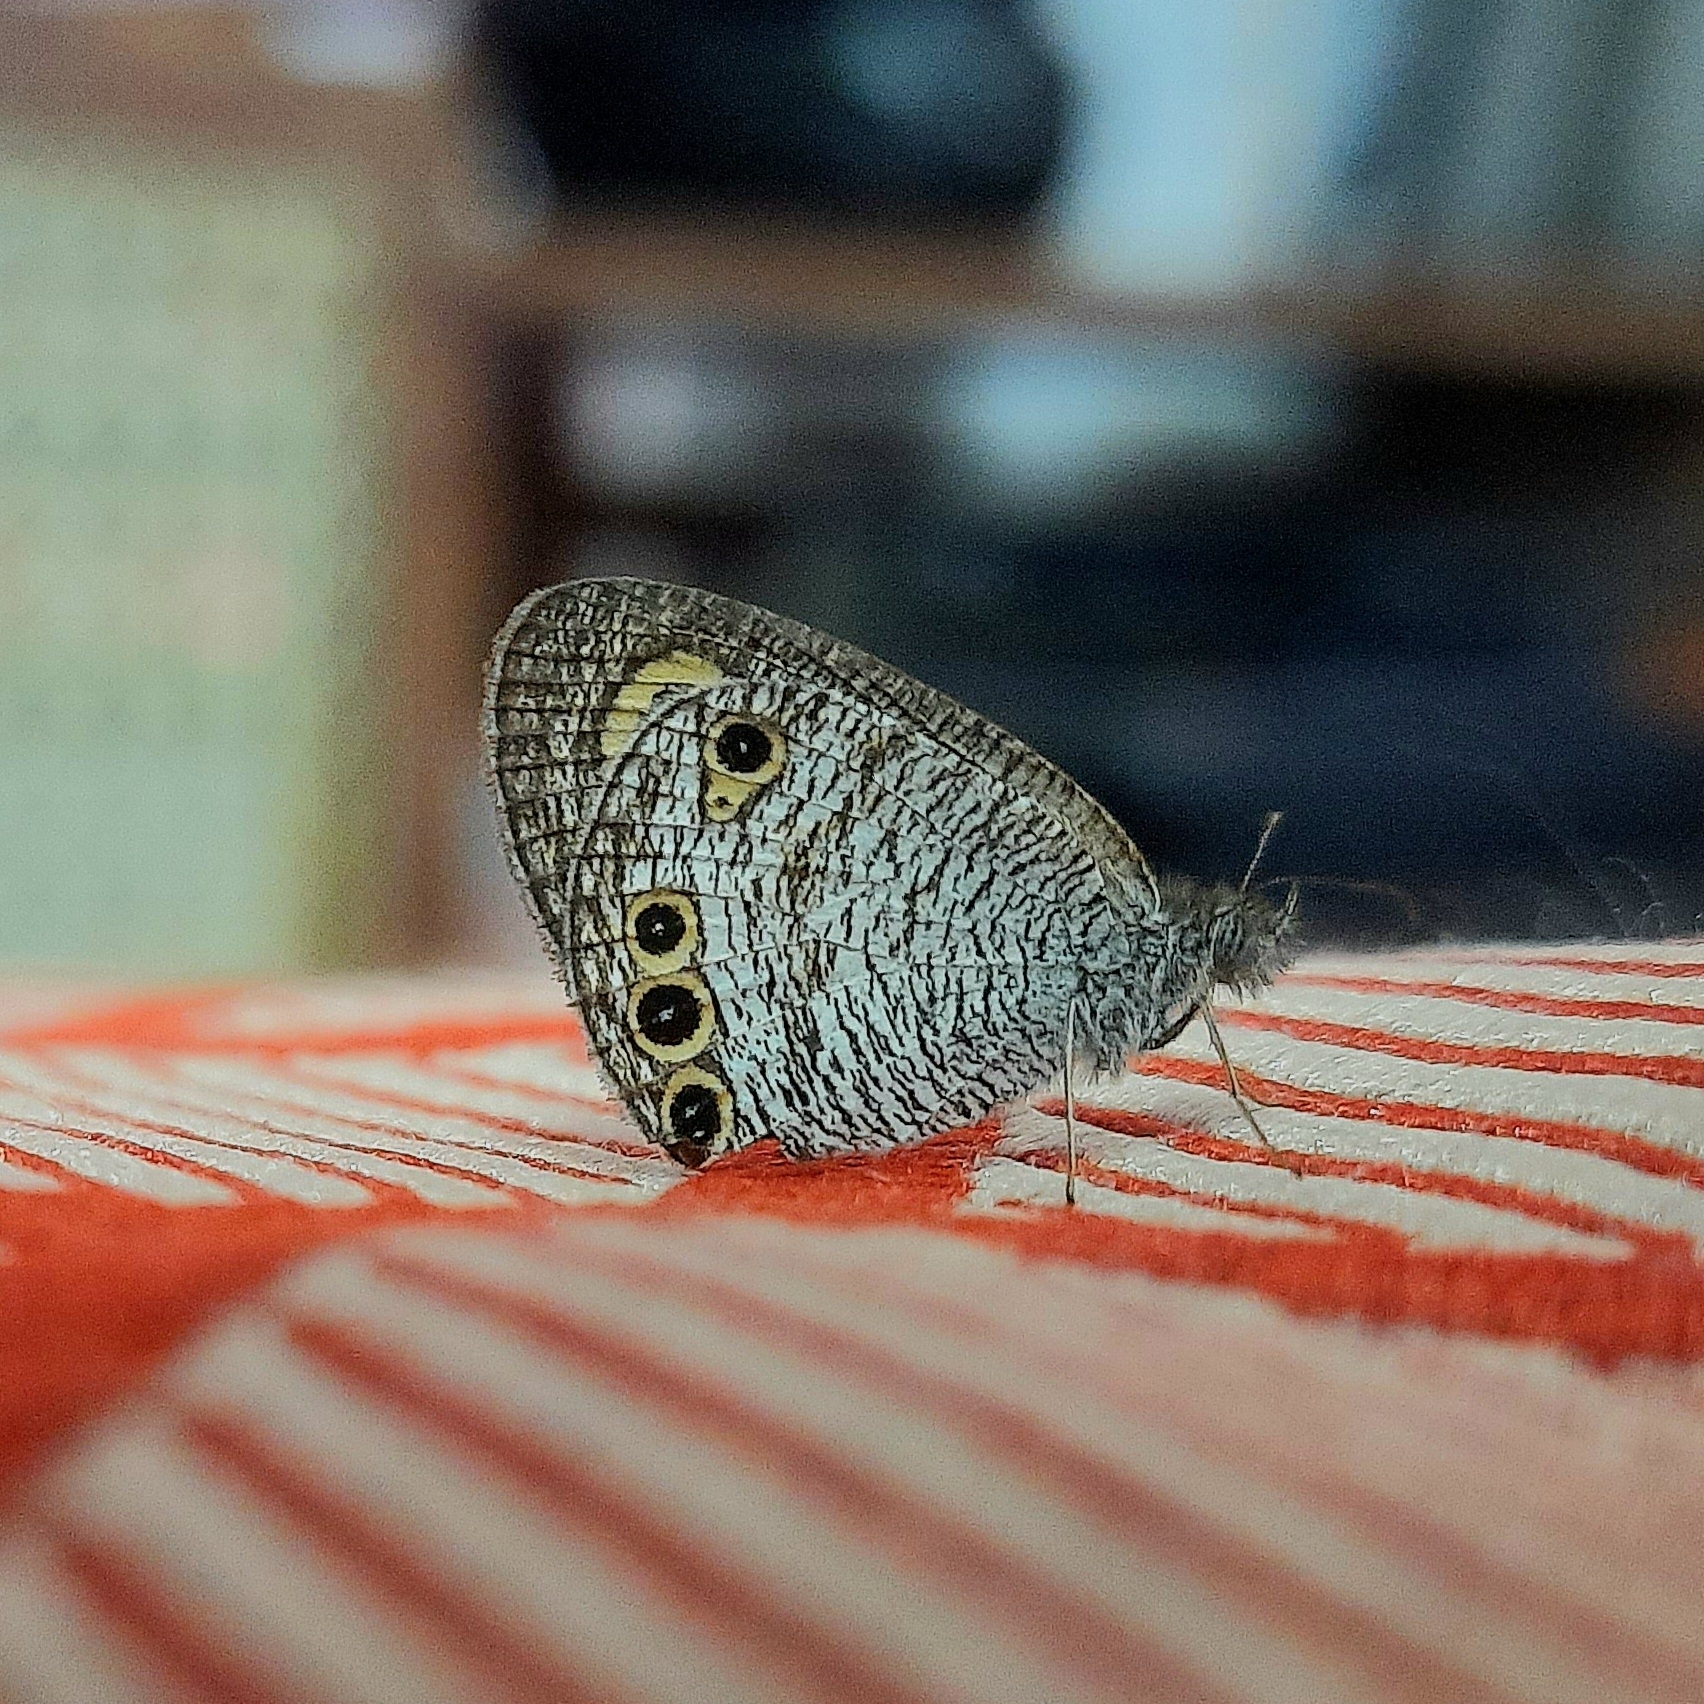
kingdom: Animalia
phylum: Arthropoda
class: Insecta
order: Lepidoptera
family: Nymphalidae
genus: Ypthima
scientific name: Ypthima huebneri
